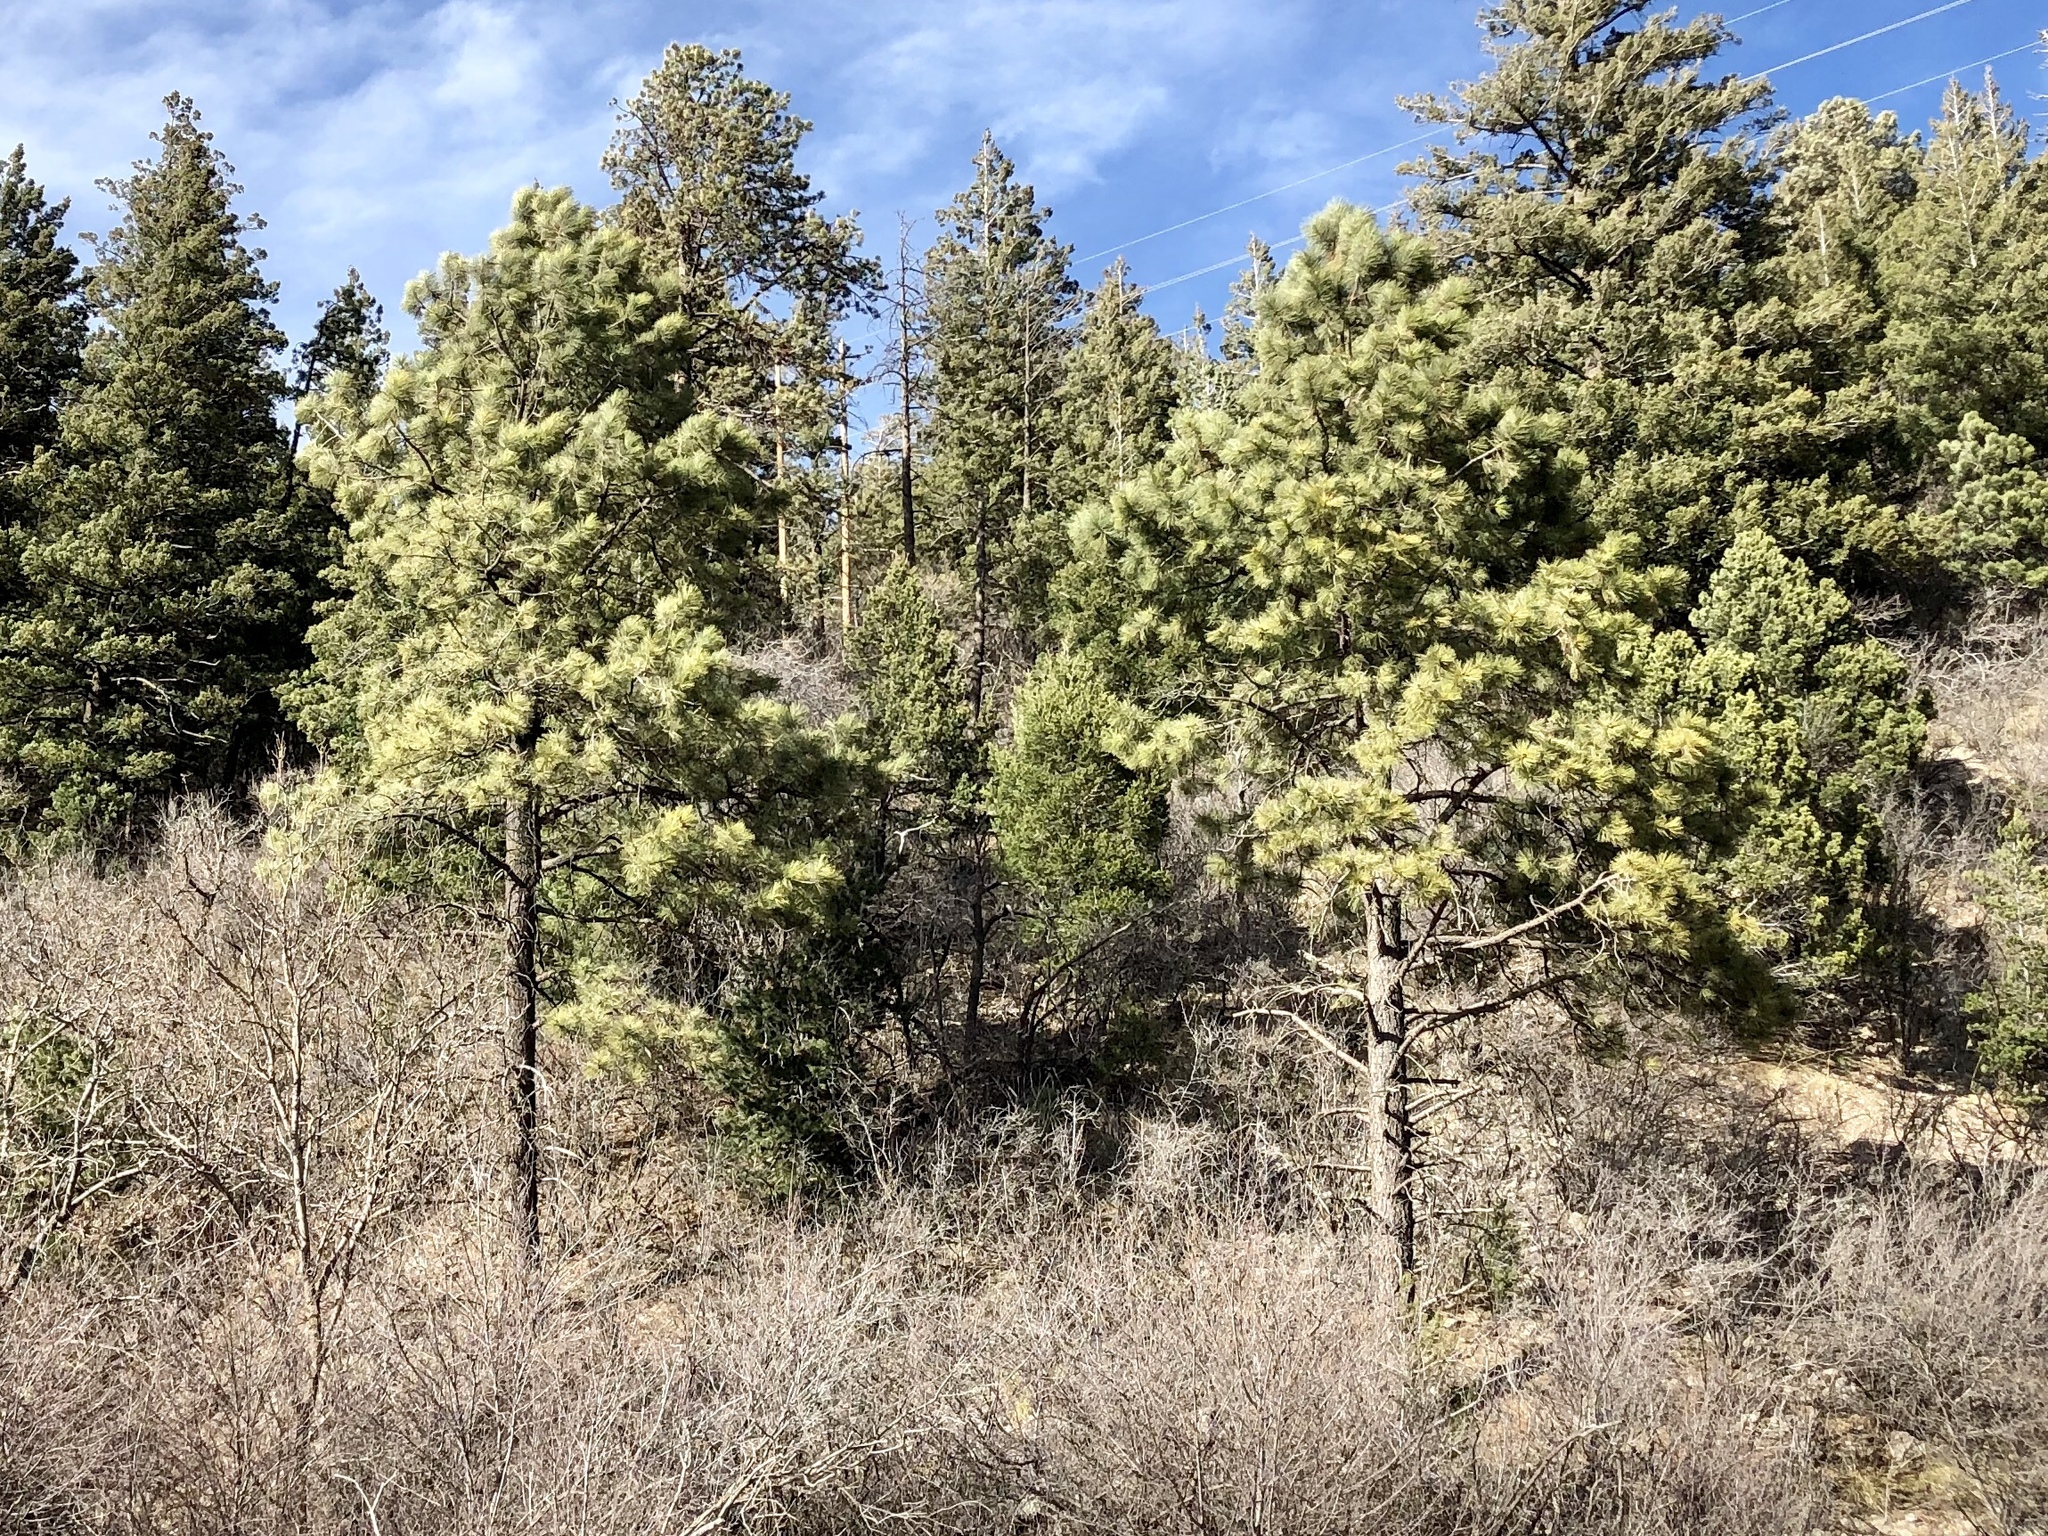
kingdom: Plantae
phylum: Tracheophyta
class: Pinopsida
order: Pinales
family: Pinaceae
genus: Pinus
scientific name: Pinus ponderosa
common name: Western yellow-pine
